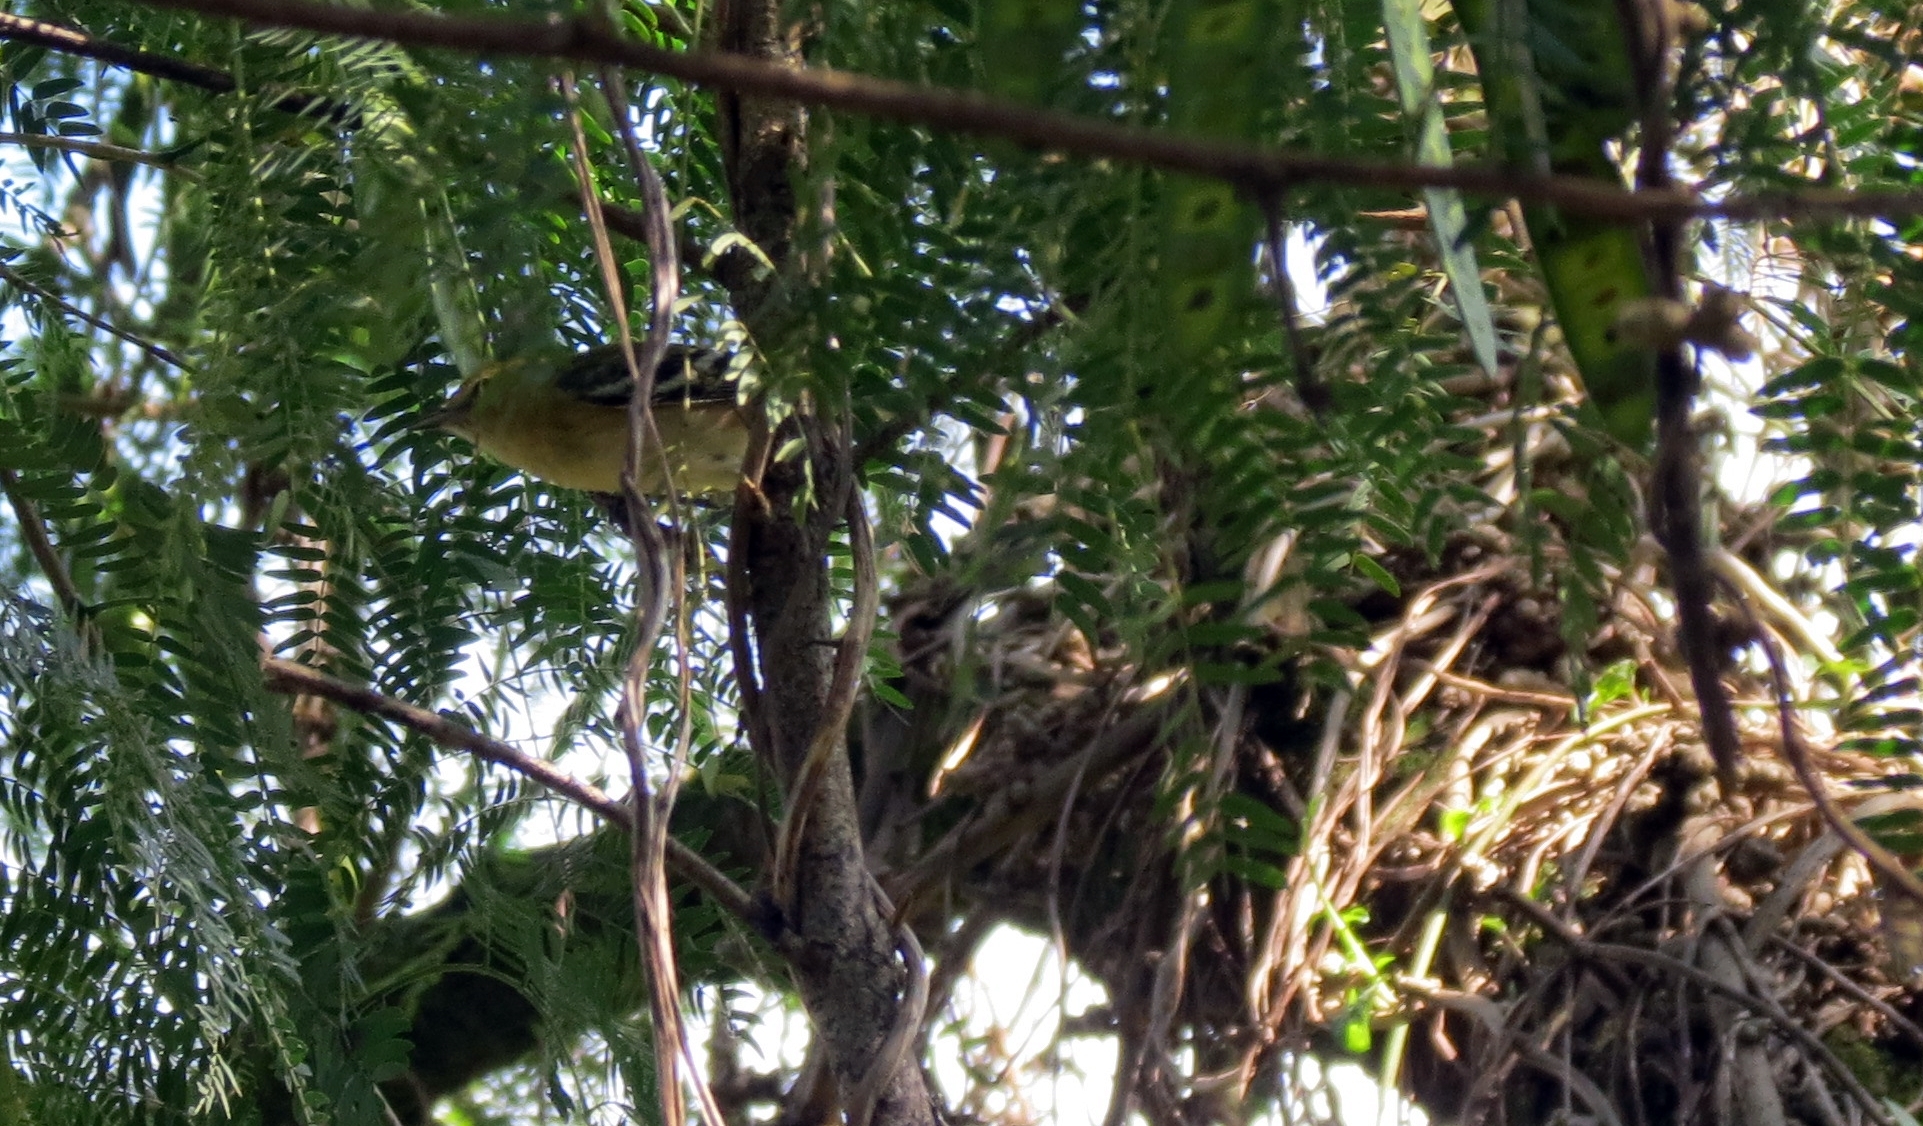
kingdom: Animalia
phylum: Chordata
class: Aves
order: Passeriformes
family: Parulidae
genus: Setophaga
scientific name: Setophaga castanea
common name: Bay-breasted warbler
